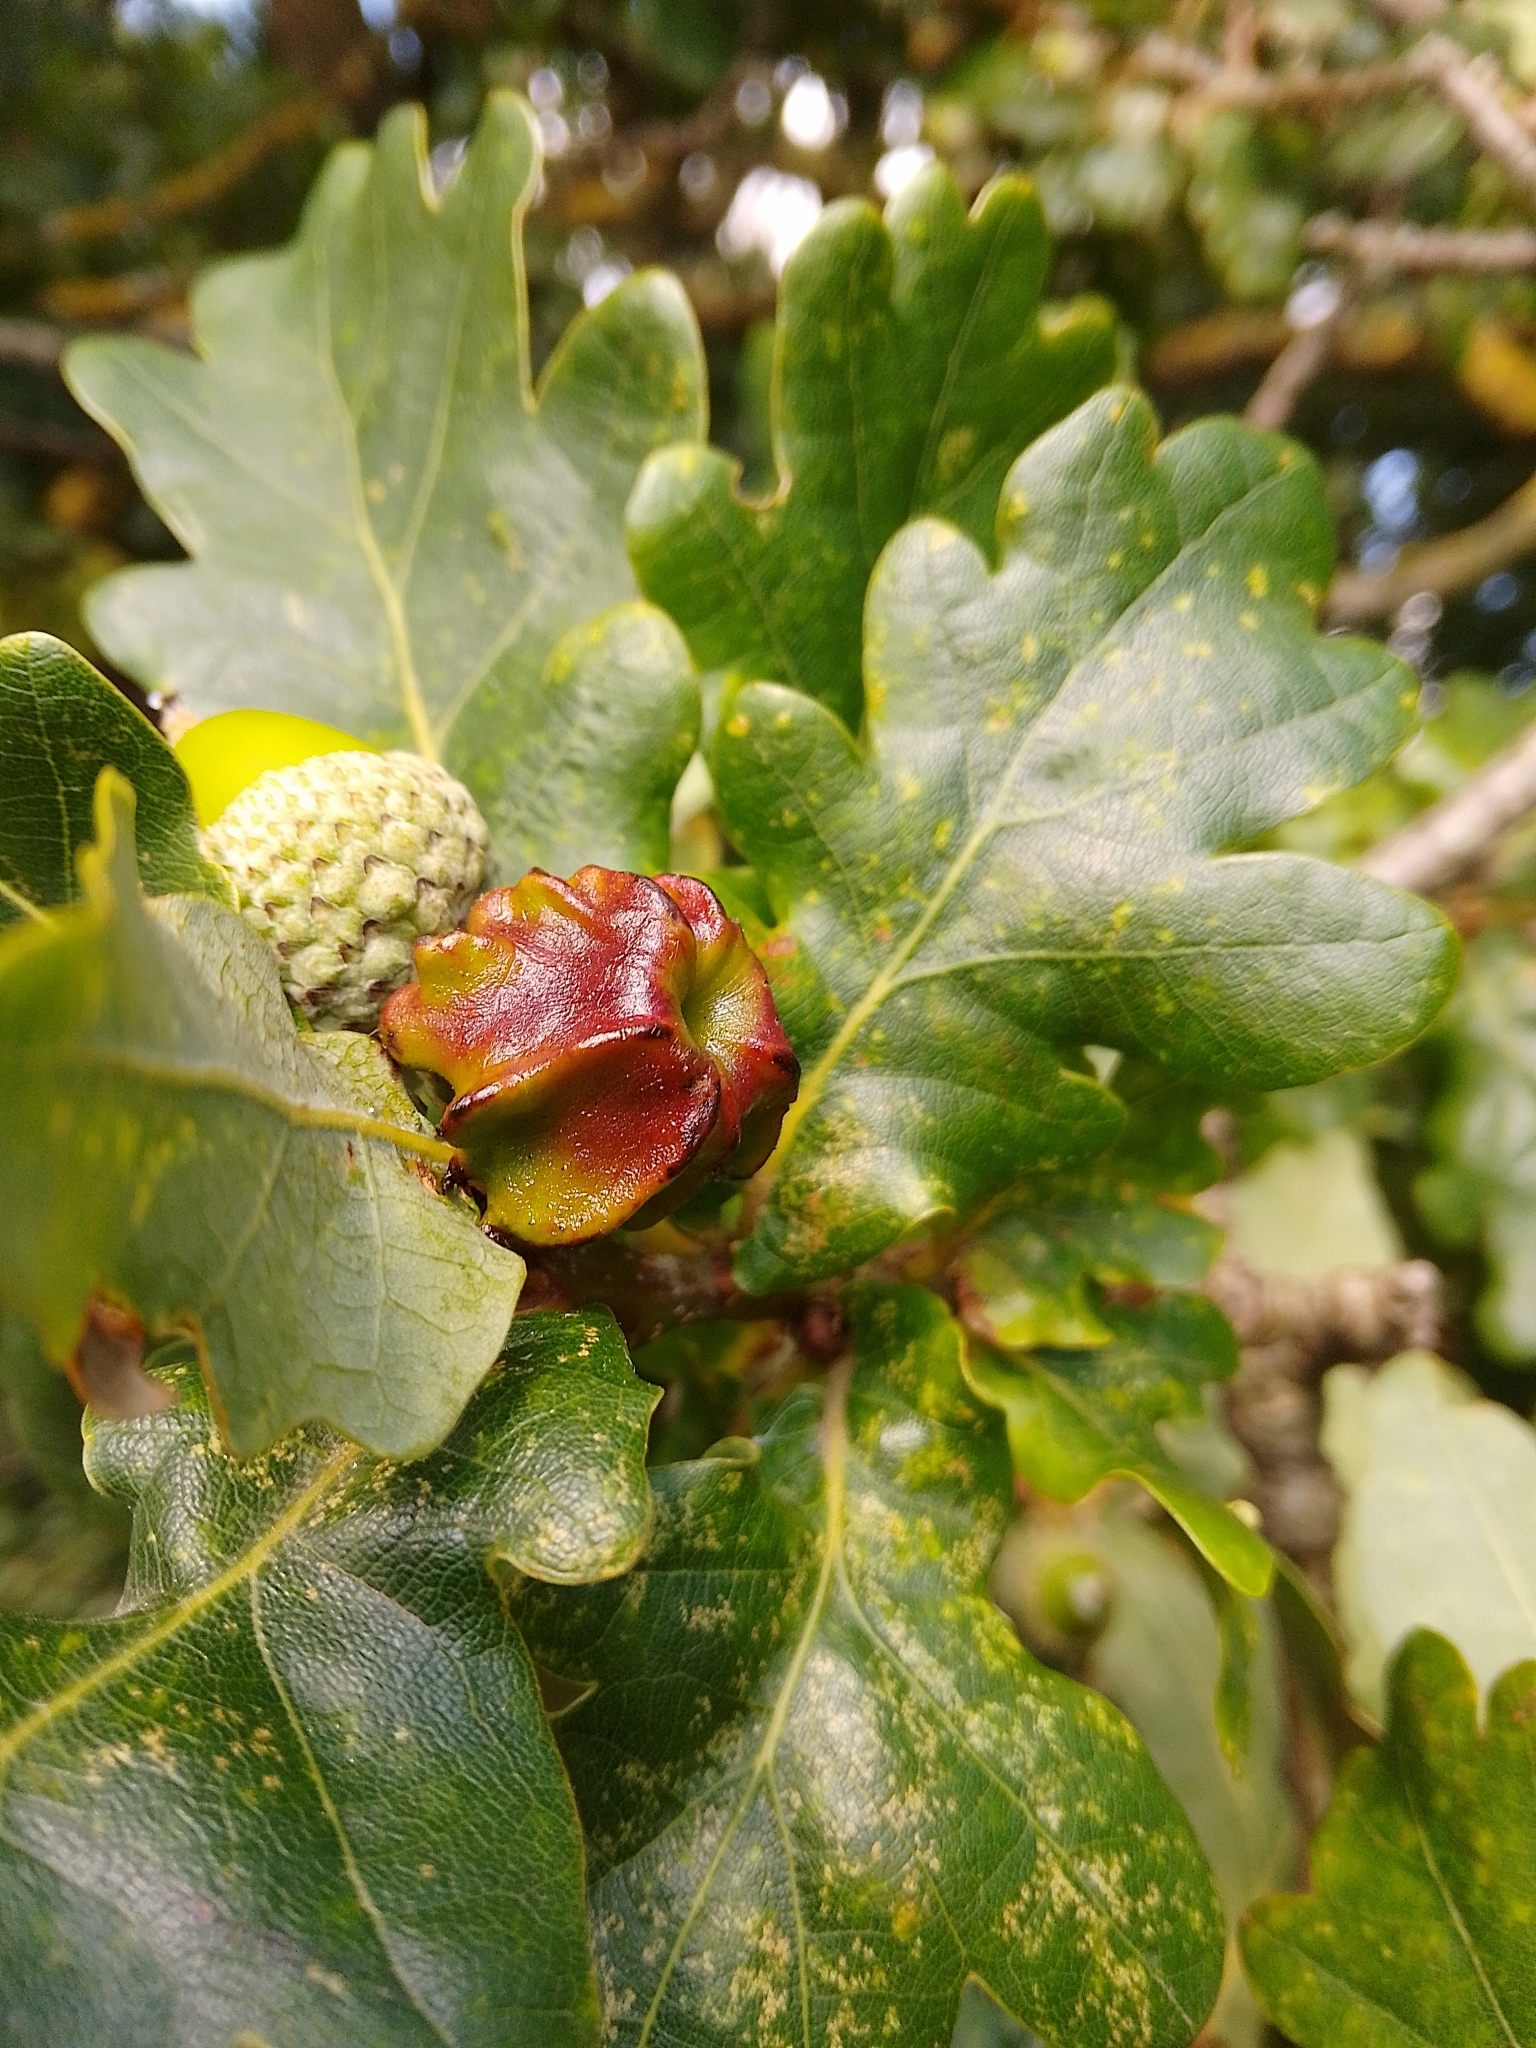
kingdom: Animalia
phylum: Arthropoda
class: Insecta
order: Hymenoptera
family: Cynipidae
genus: Andricus
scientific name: Andricus quercuscalicis
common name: Knopper gall
